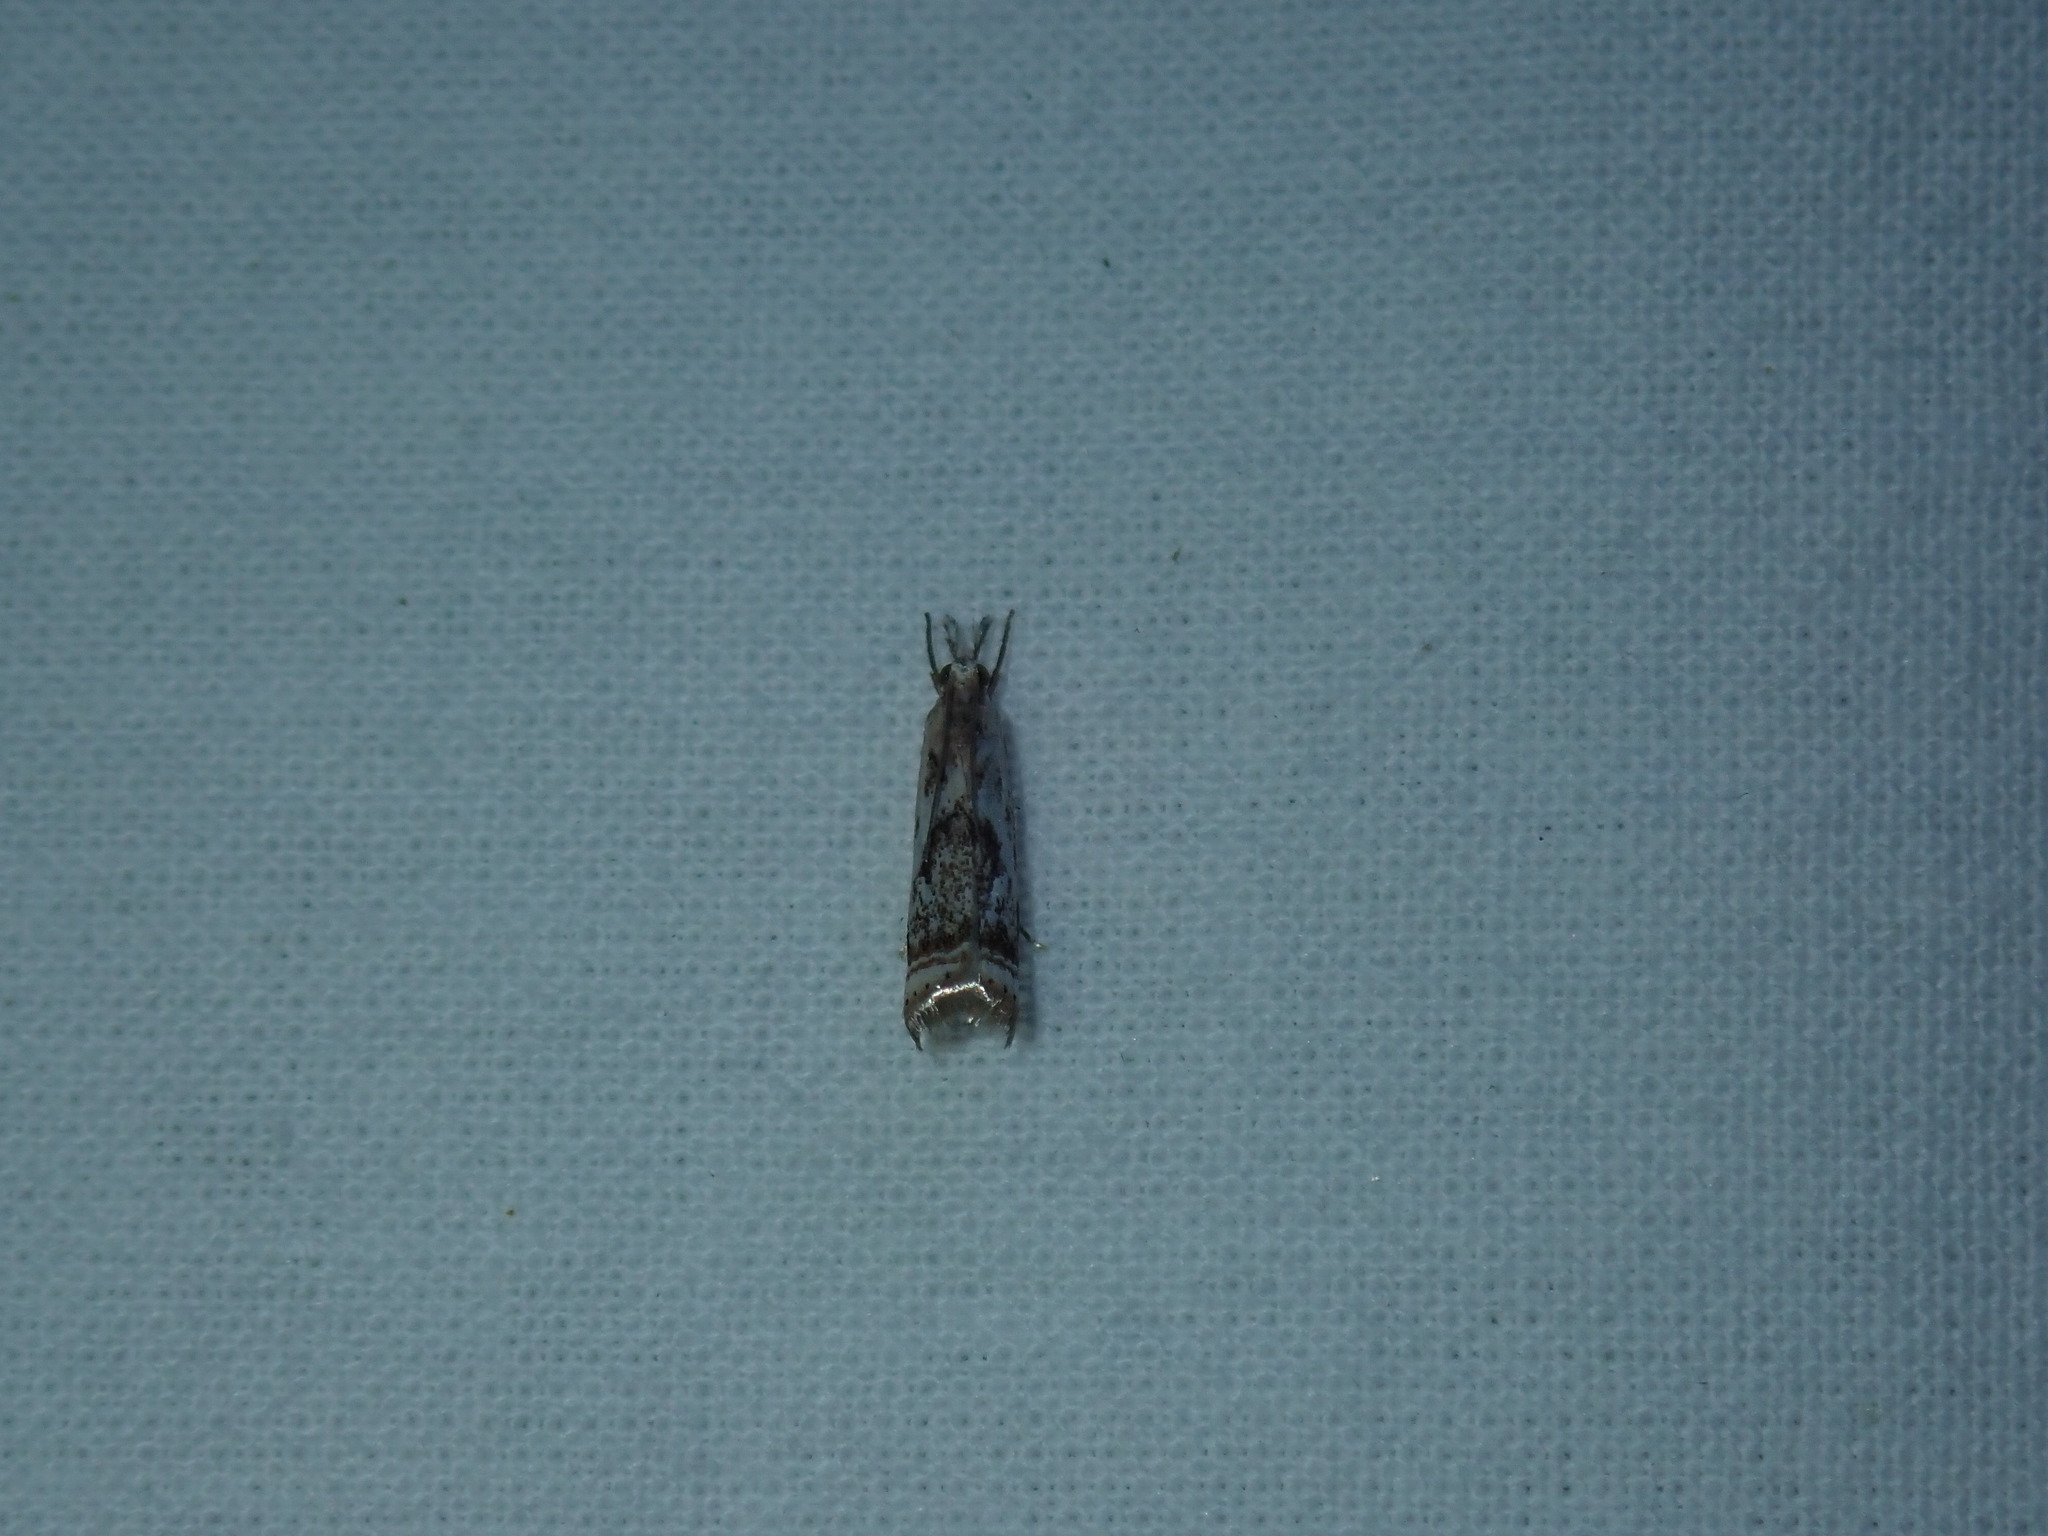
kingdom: Animalia
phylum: Arthropoda
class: Insecta
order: Lepidoptera
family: Crambidae
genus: Microcrambus
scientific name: Microcrambus elegans
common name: Elegant grass-veneer
